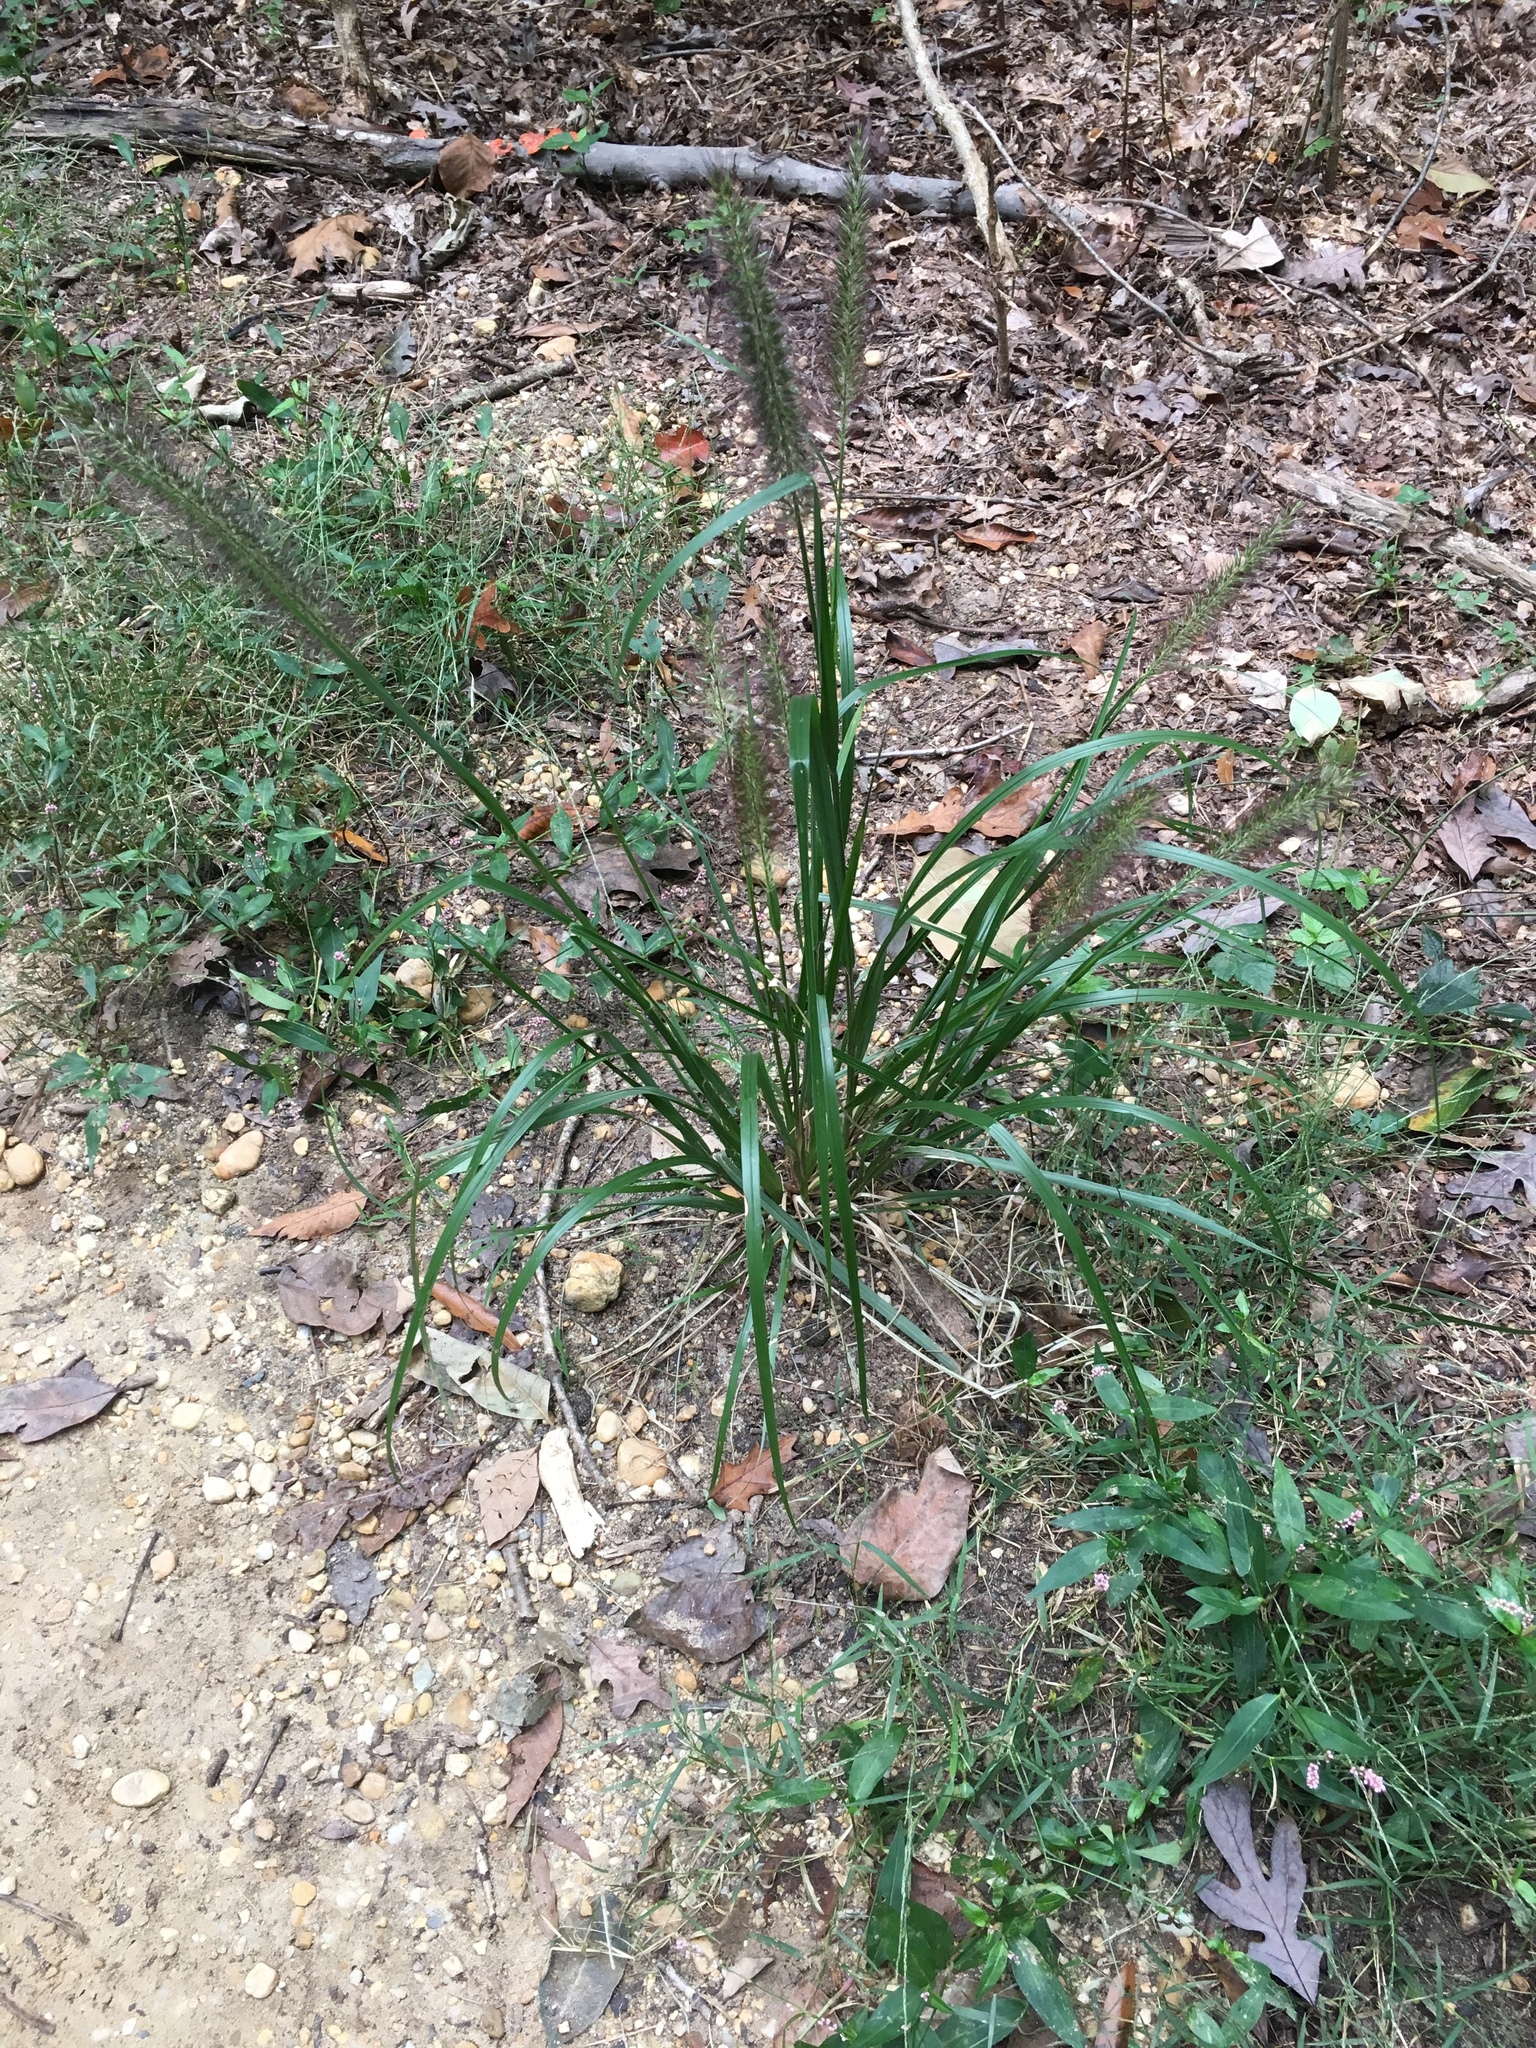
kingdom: Plantae
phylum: Tracheophyta
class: Liliopsida
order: Poales
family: Poaceae
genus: Cenchrus
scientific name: Cenchrus alopecuroides
